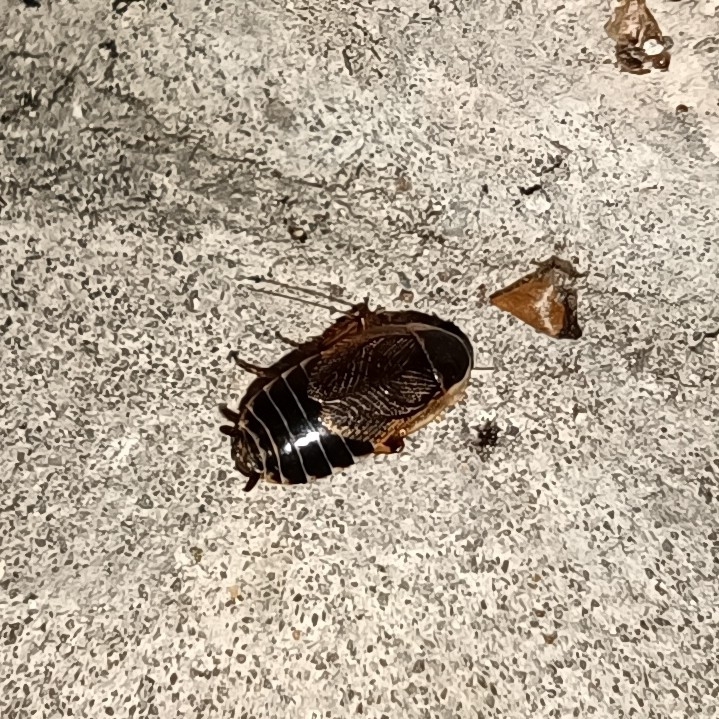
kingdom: Animalia
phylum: Arthropoda
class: Insecta
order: Blattodea
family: Ectobiidae
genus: Ectobius
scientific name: Ectobius sylvestris
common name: Forest cockroach
